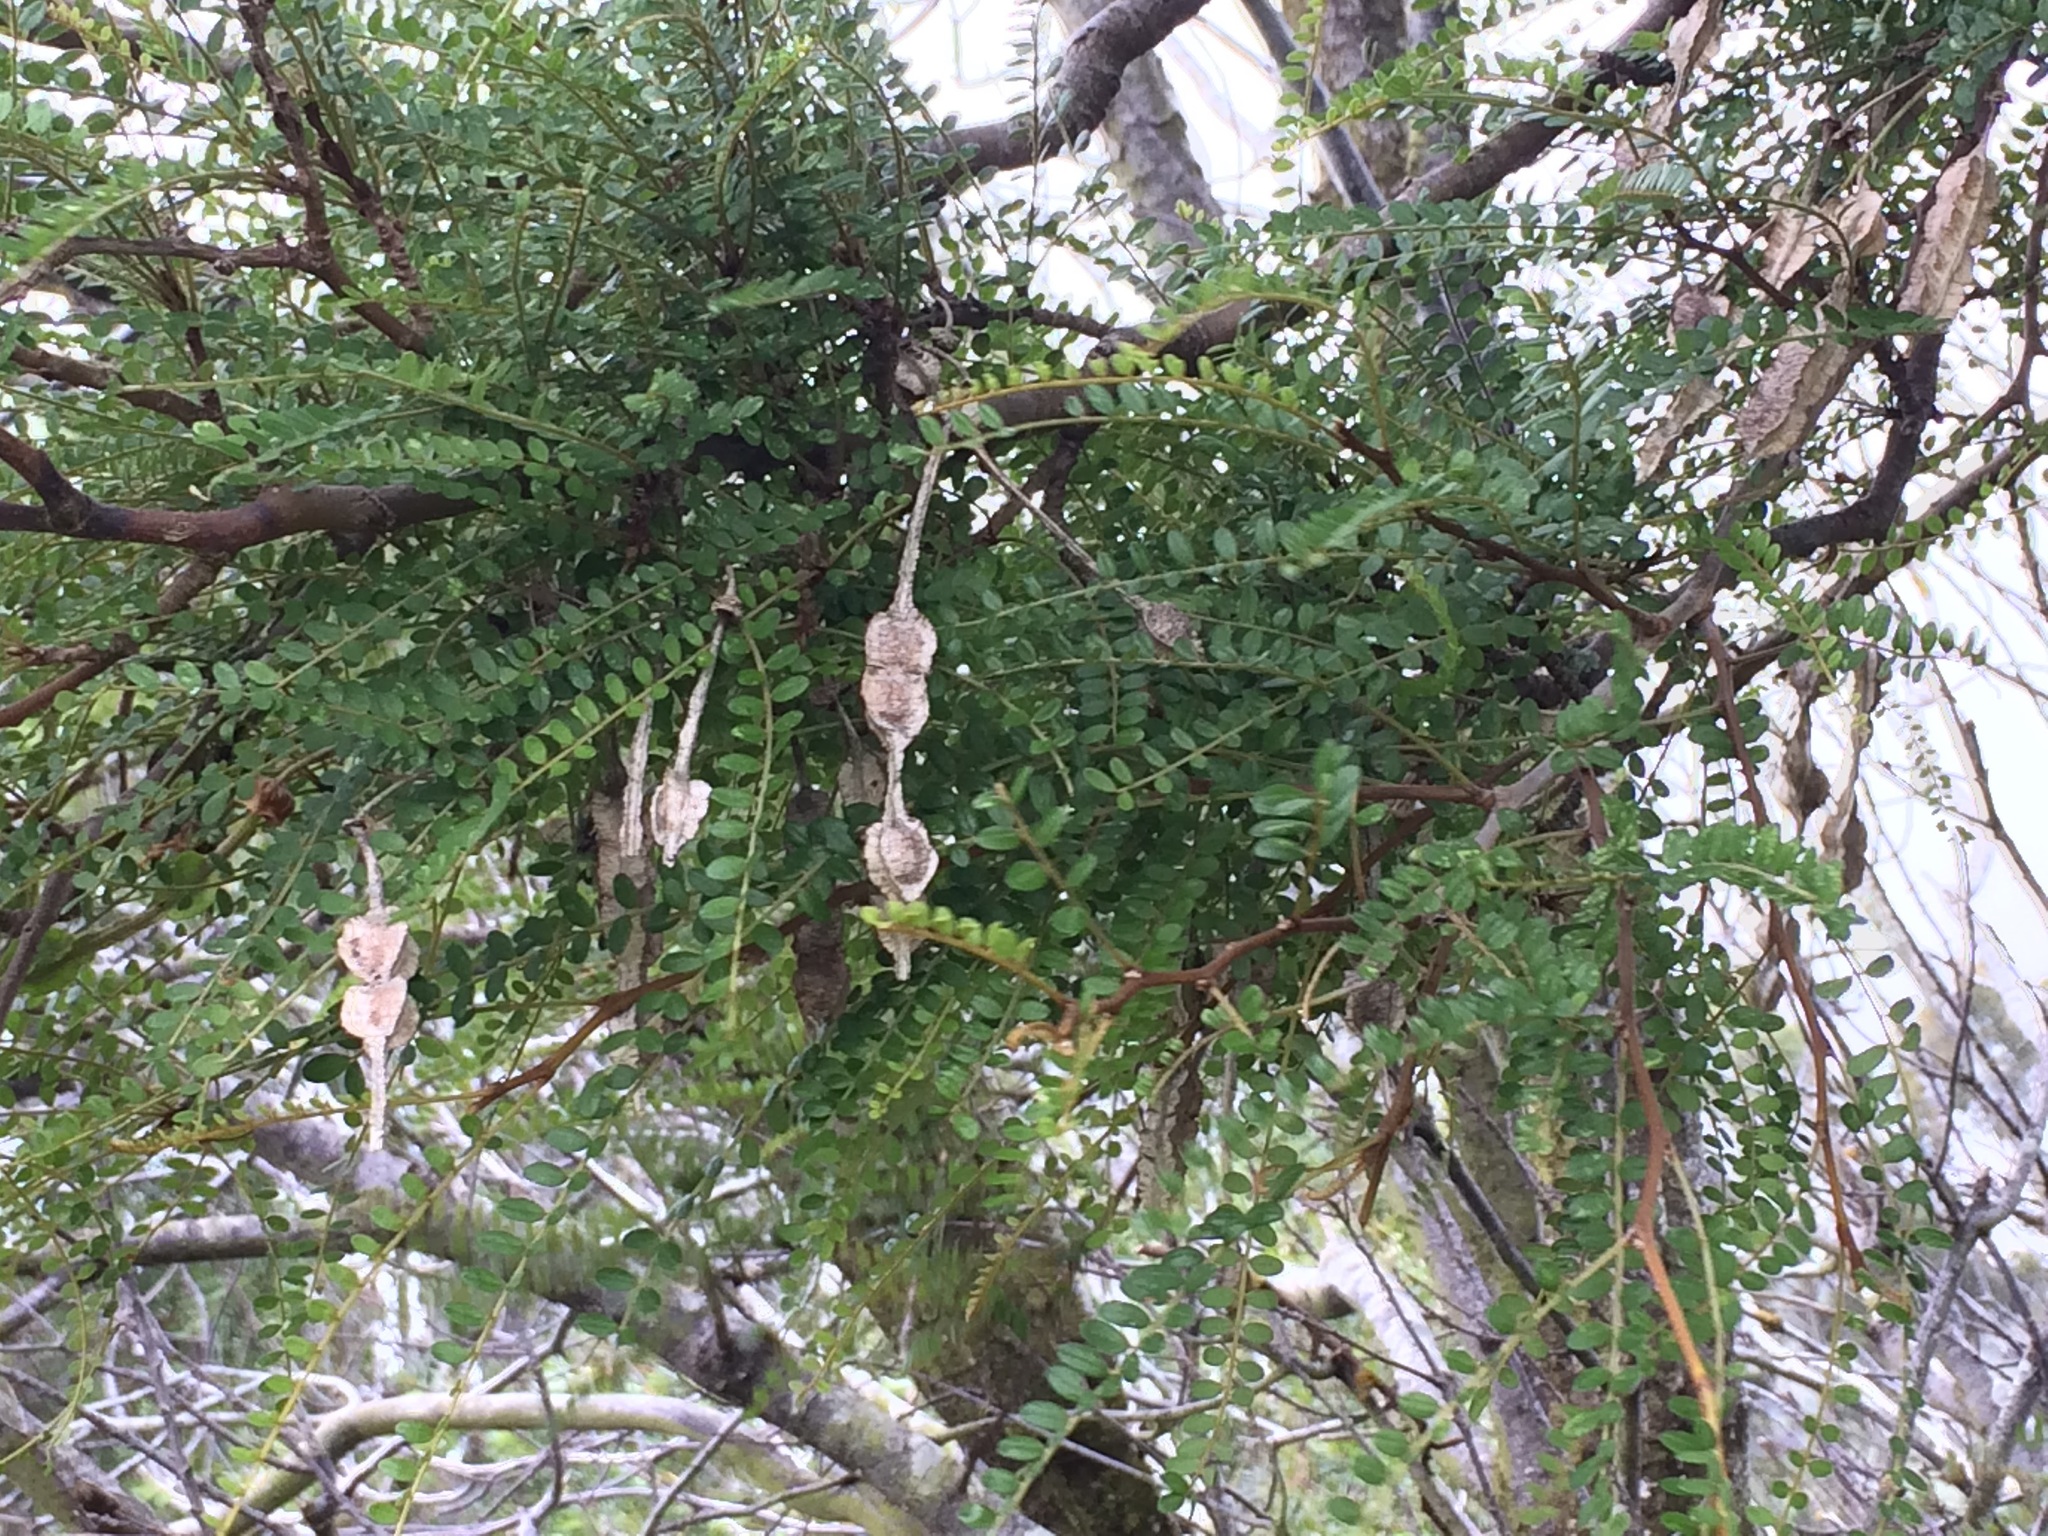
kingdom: Plantae
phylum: Tracheophyta
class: Magnoliopsida
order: Fabales
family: Fabaceae
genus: Sophora
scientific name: Sophora microphylla
